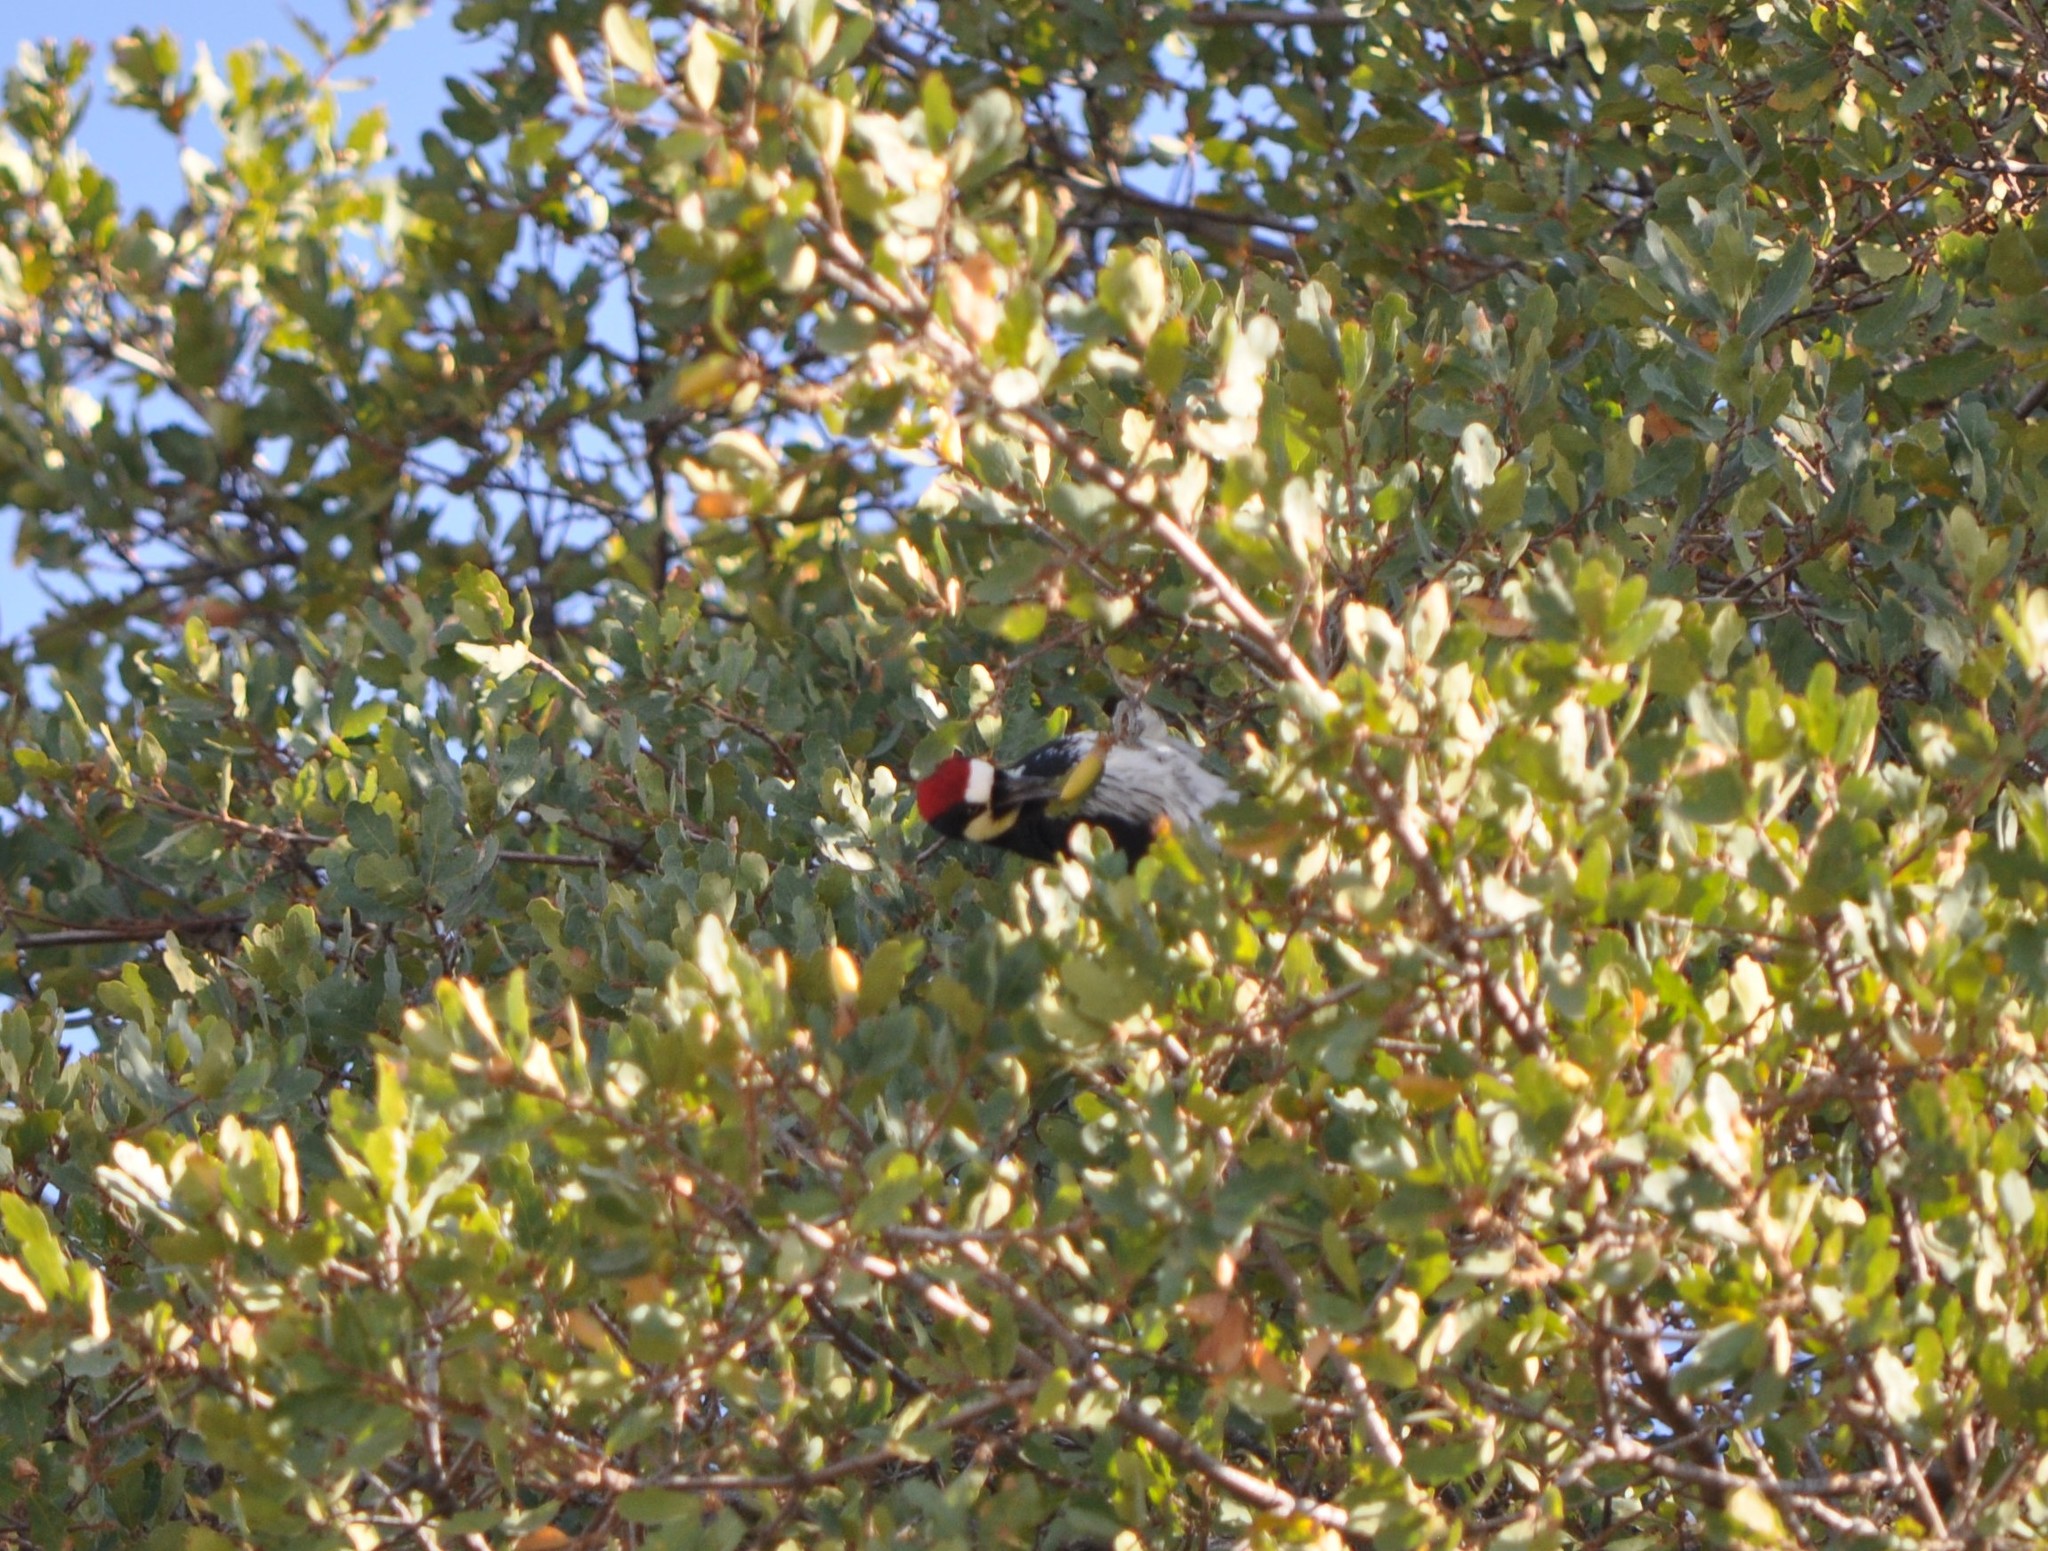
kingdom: Animalia
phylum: Chordata
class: Aves
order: Piciformes
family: Picidae
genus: Melanerpes
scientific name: Melanerpes formicivorus
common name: Acorn woodpecker
